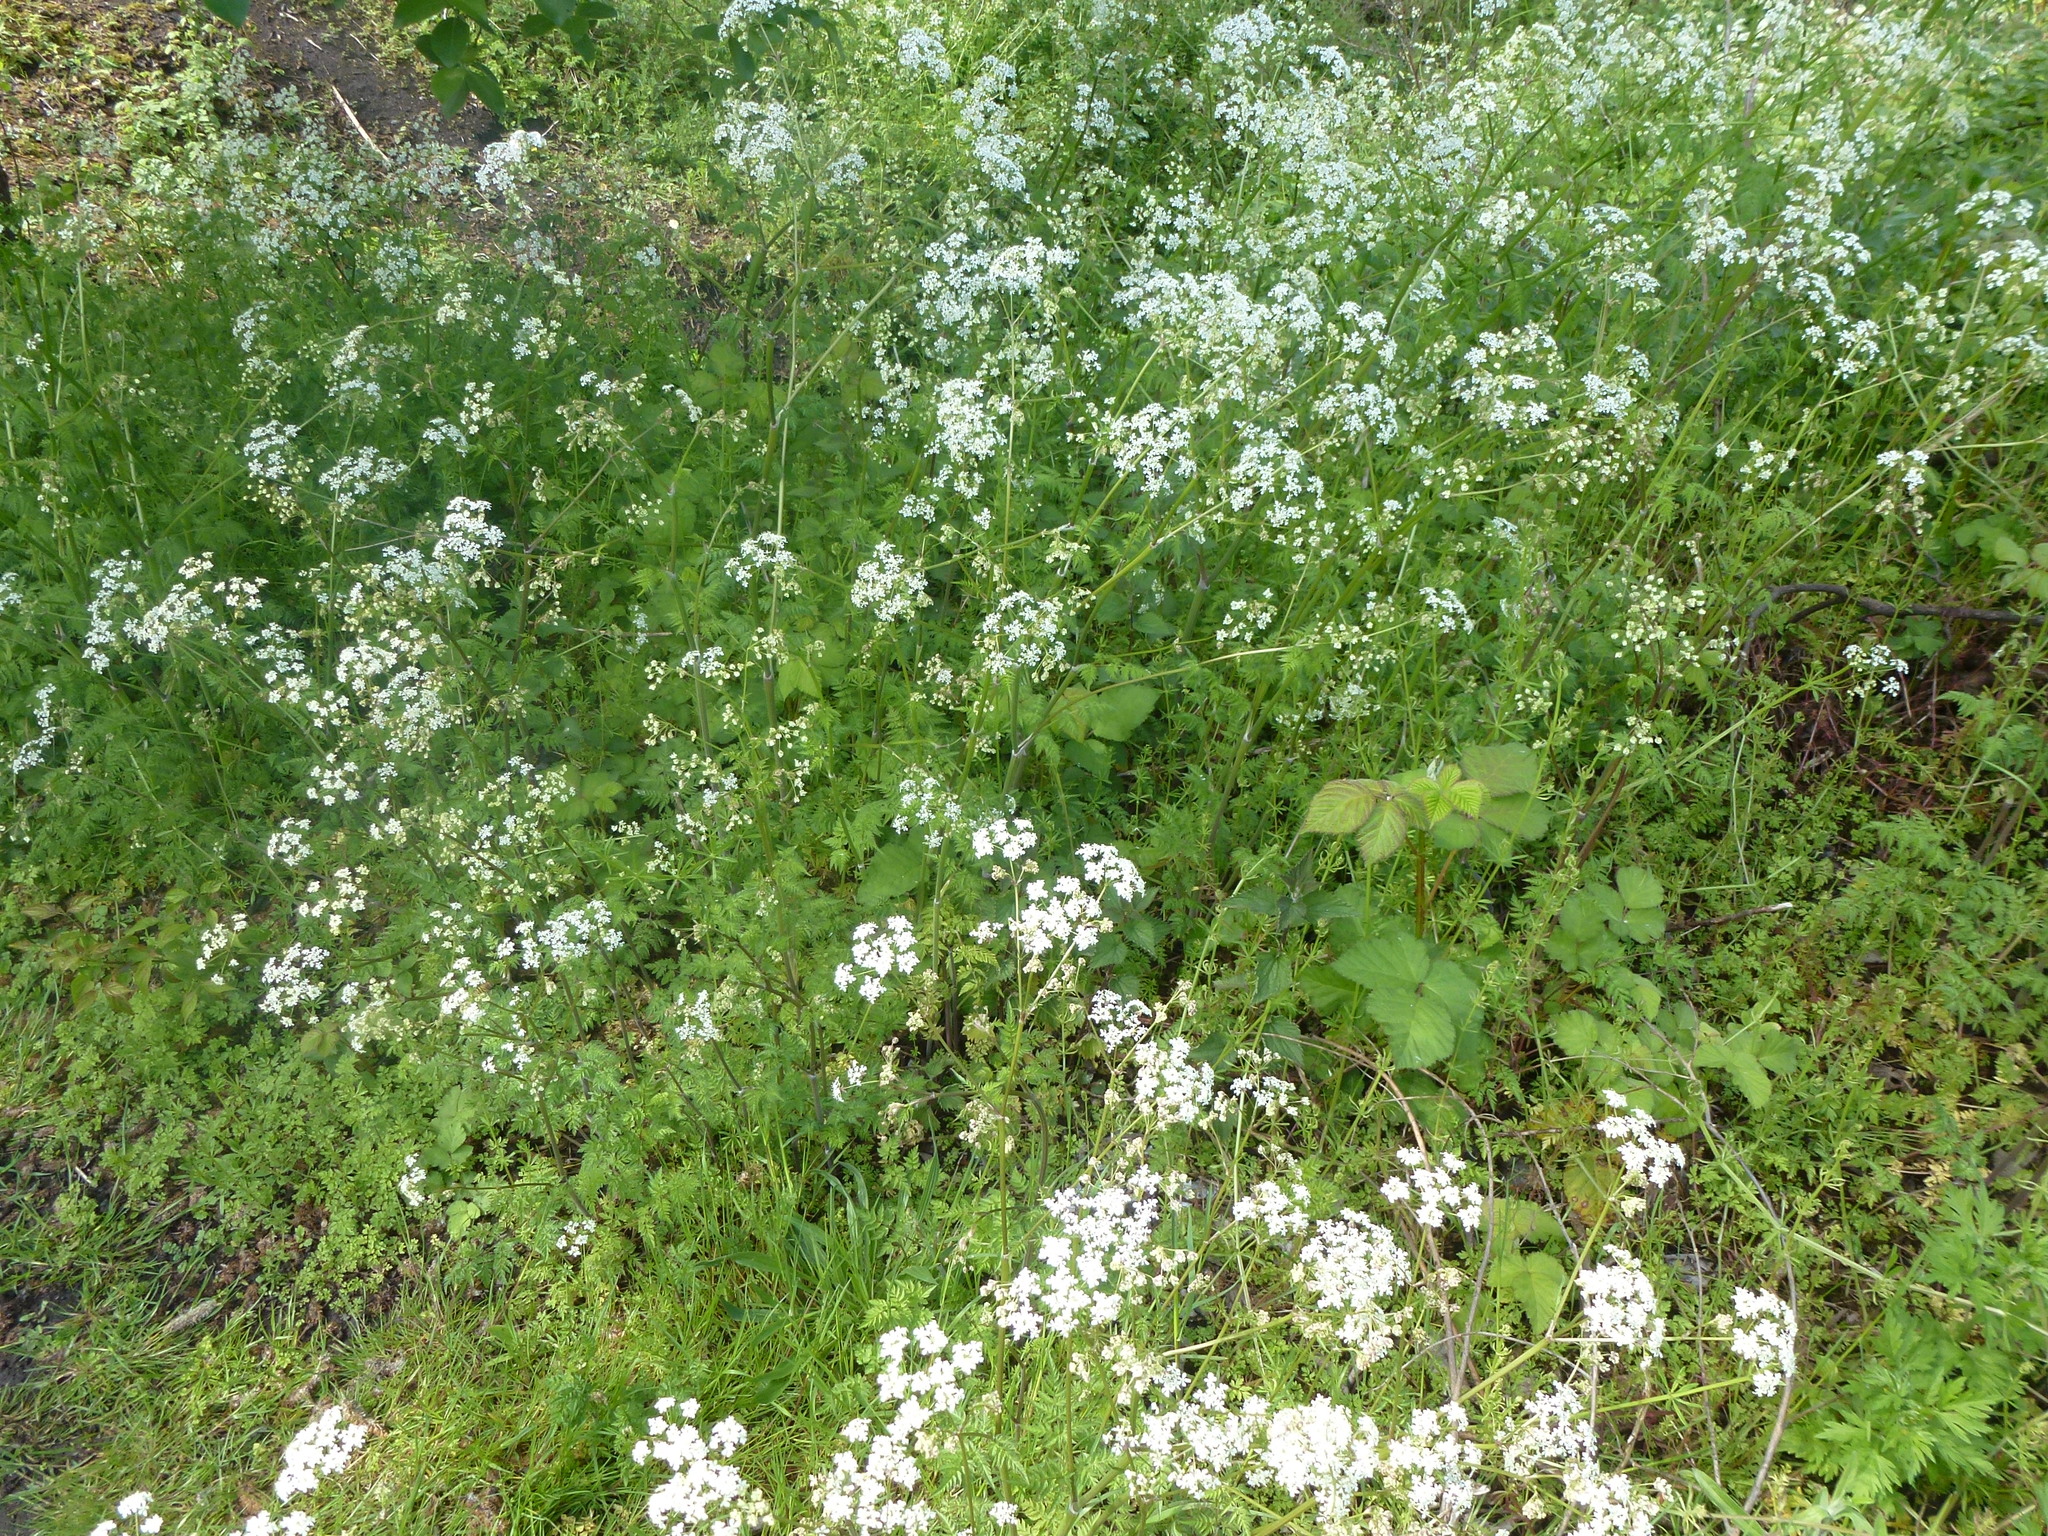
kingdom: Plantae
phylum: Tracheophyta
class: Magnoliopsida
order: Apiales
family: Apiaceae
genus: Anthriscus
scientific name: Anthriscus sylvestris
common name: Cow parsley
